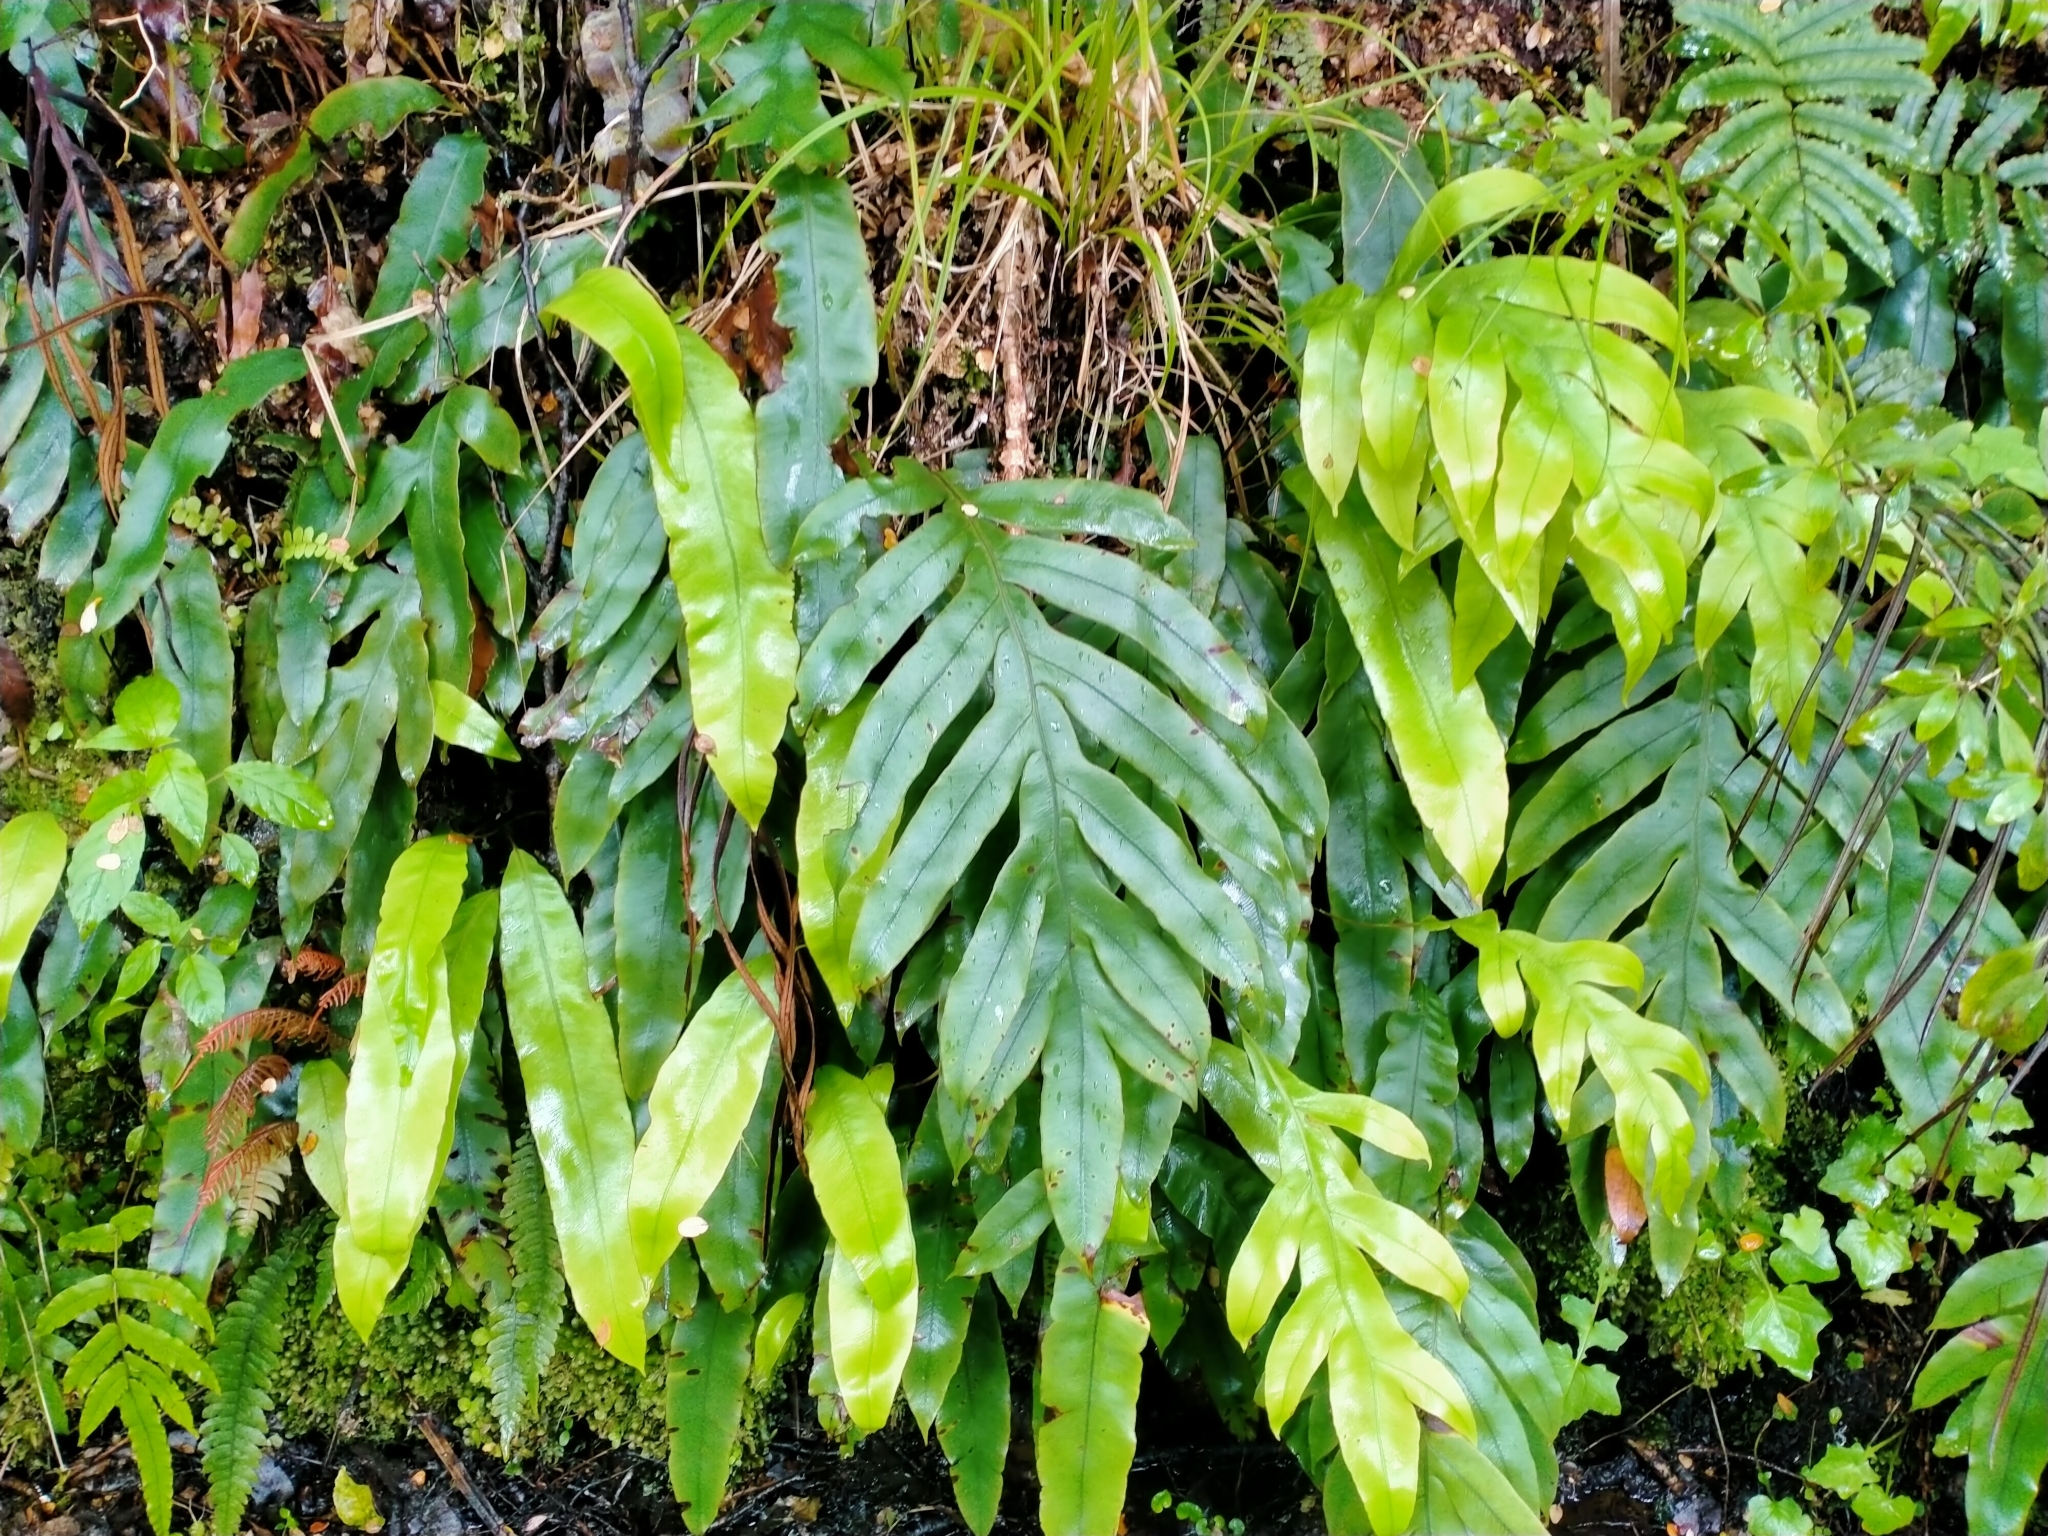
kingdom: Plantae
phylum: Tracheophyta
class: Polypodiopsida
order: Polypodiales
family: Blechnaceae
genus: Austroblechnum
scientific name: Austroblechnum colensoi
